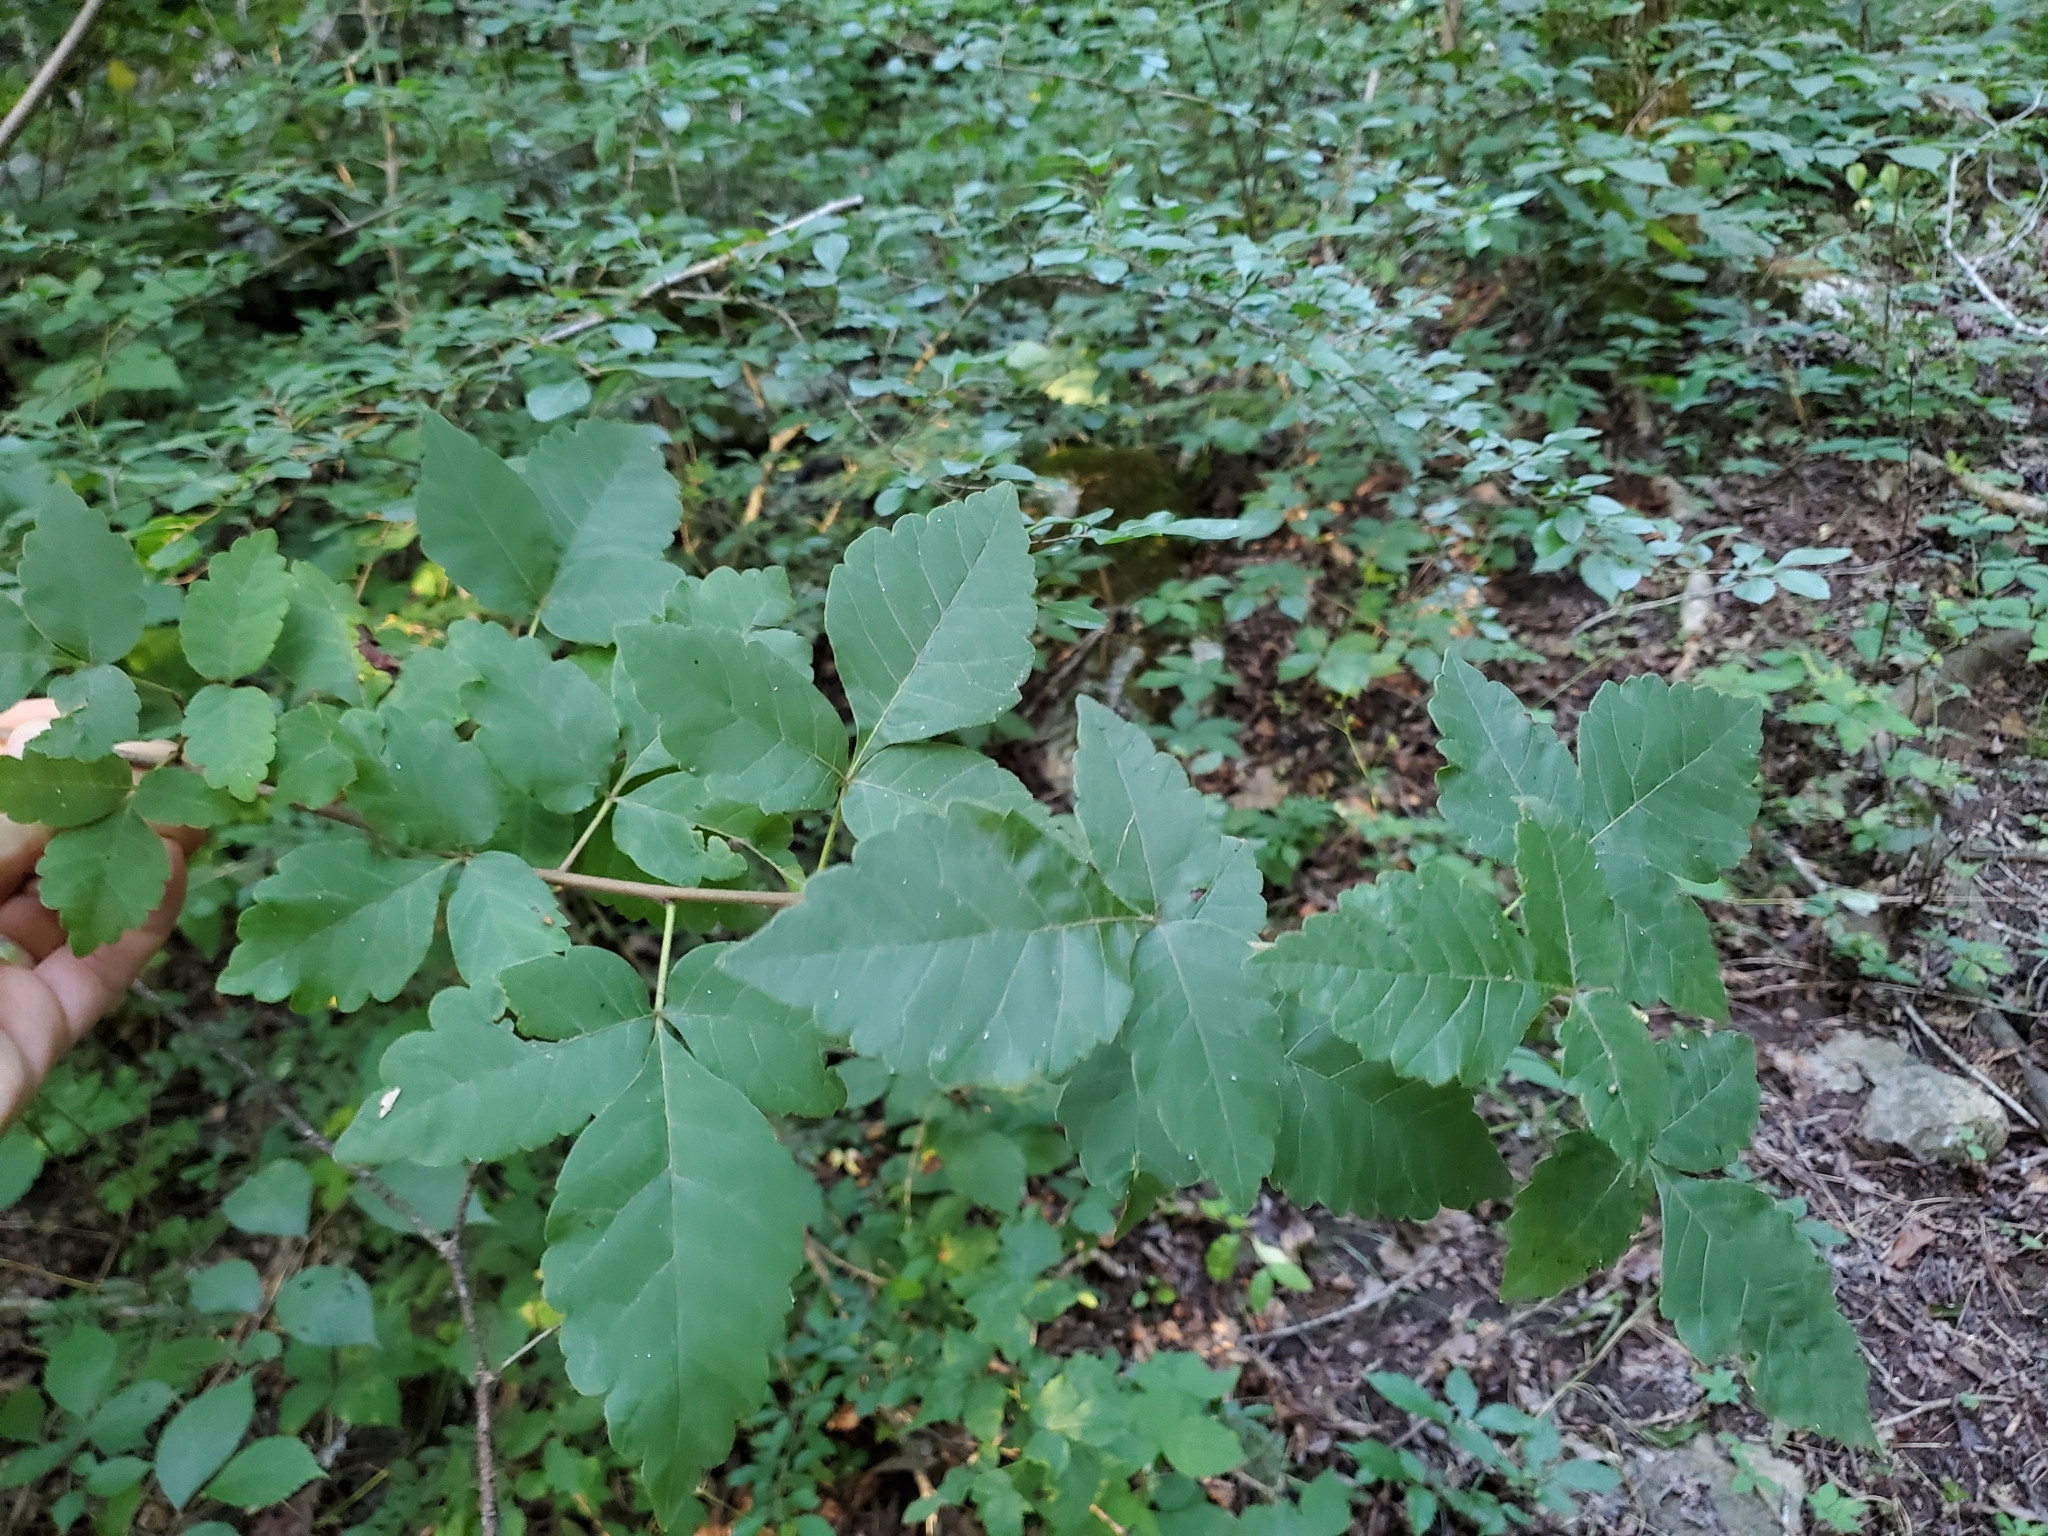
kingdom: Plantae
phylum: Tracheophyta
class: Magnoliopsida
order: Sapindales
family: Anacardiaceae
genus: Rhus
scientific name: Rhus aromatica
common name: Aromatic sumac
